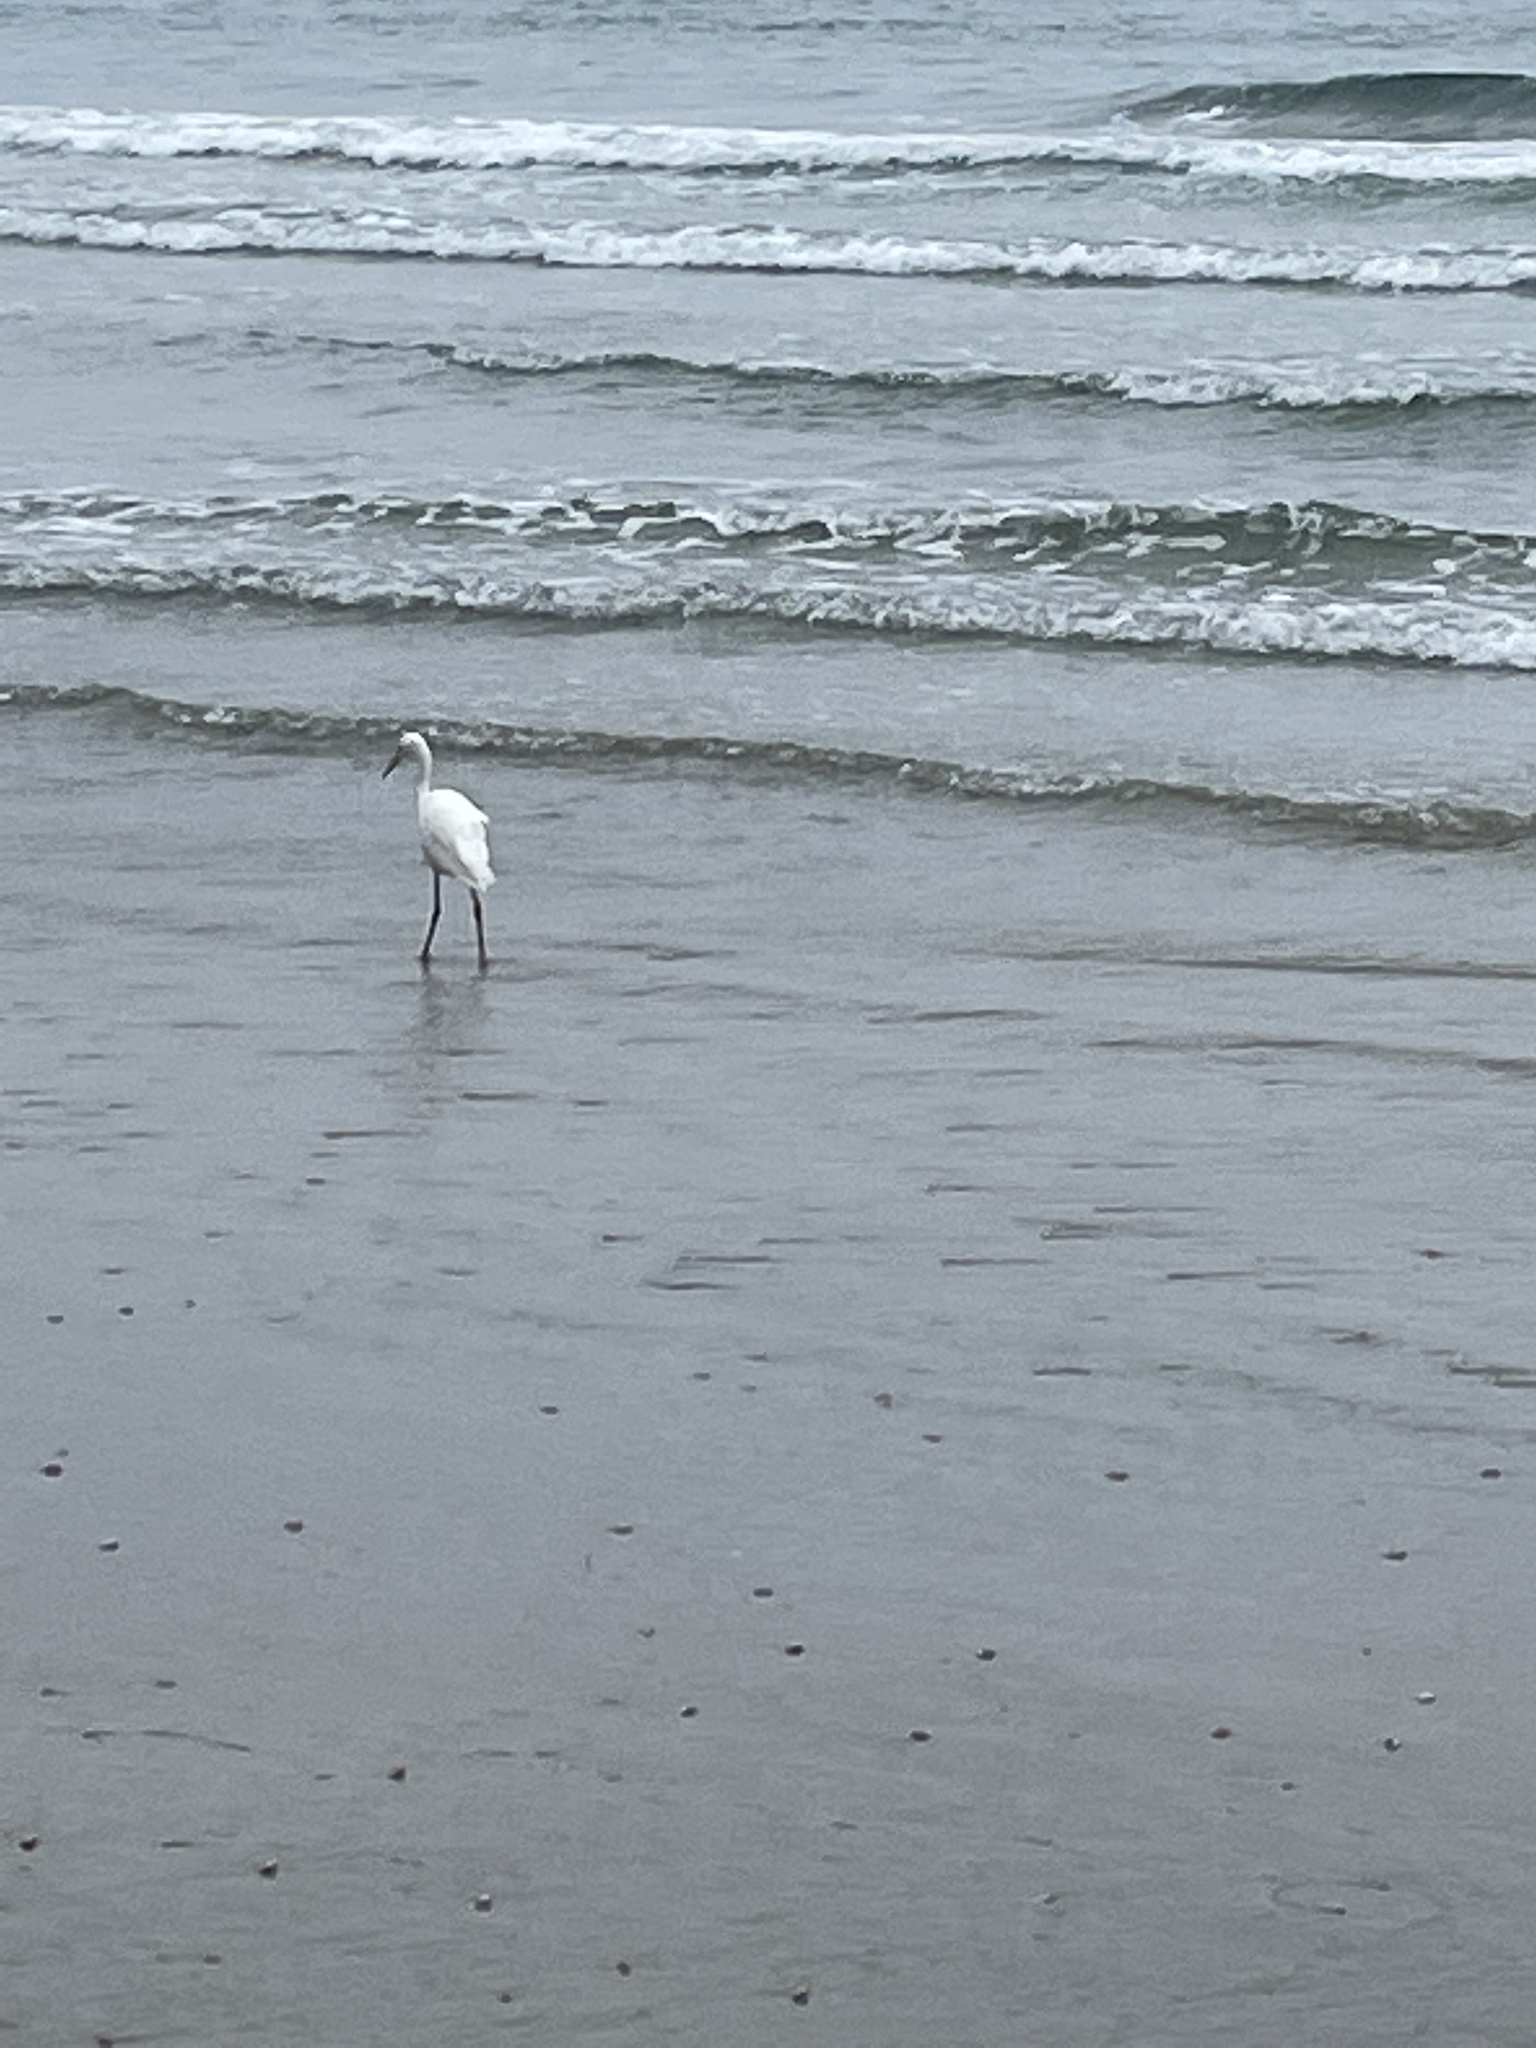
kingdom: Animalia
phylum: Chordata
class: Aves
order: Pelecaniformes
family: Ardeidae
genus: Egretta
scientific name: Egretta thula
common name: Snowy egret
